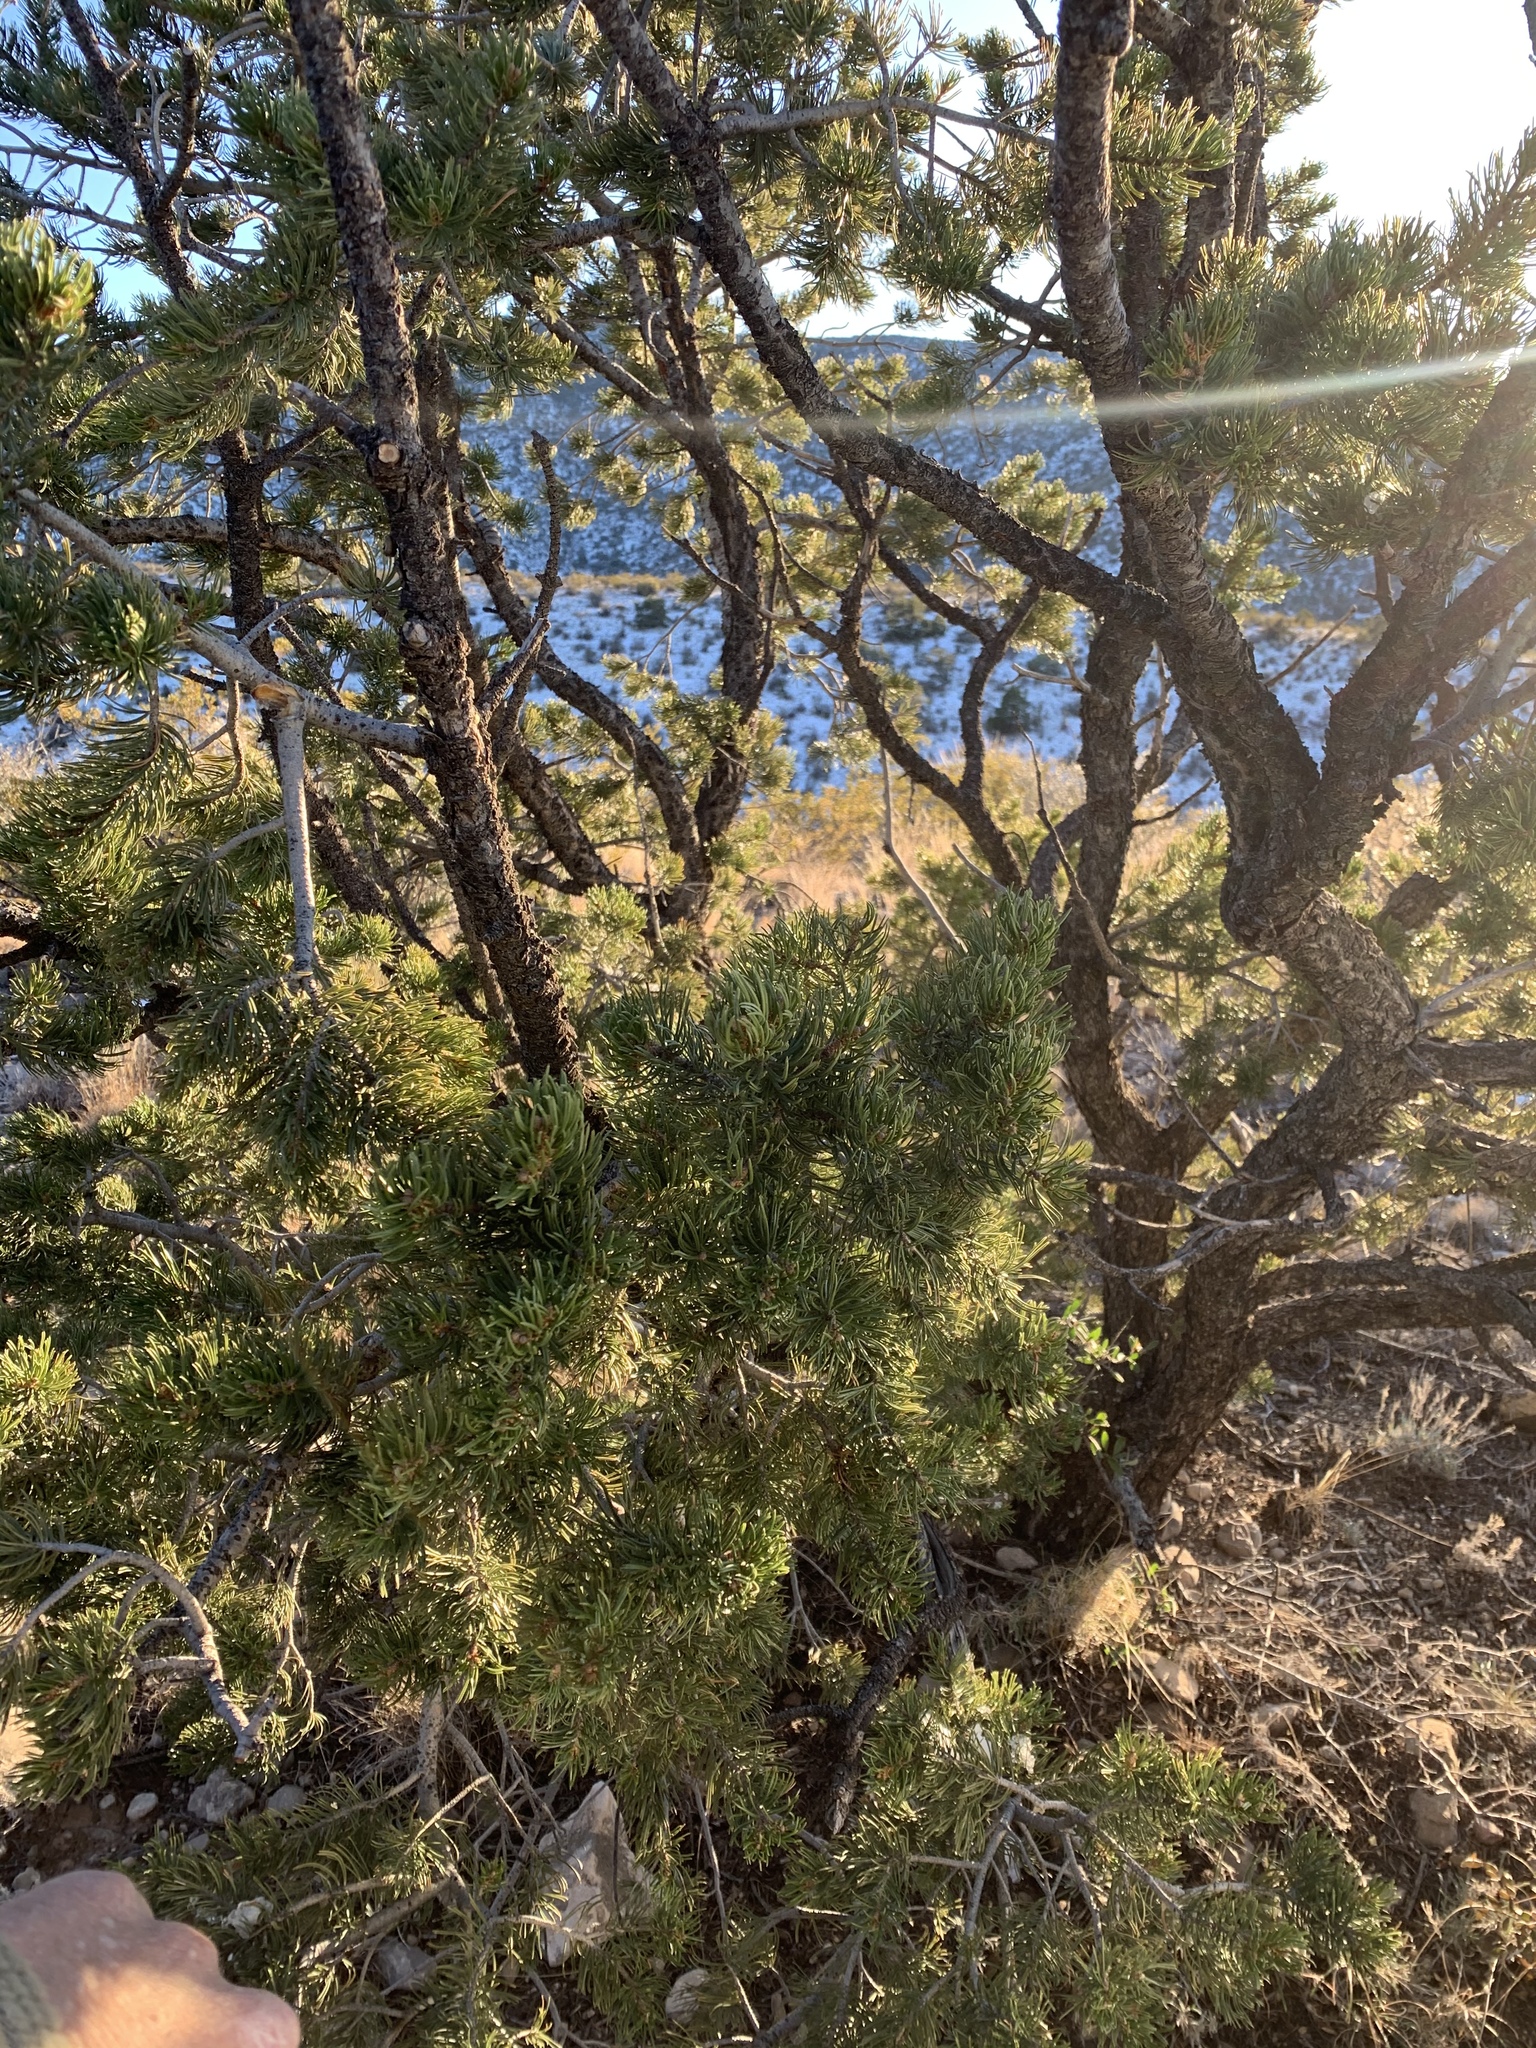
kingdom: Plantae
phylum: Tracheophyta
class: Pinopsida
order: Pinales
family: Pinaceae
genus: Pinus
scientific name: Pinus edulis
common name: Colorado pinyon
